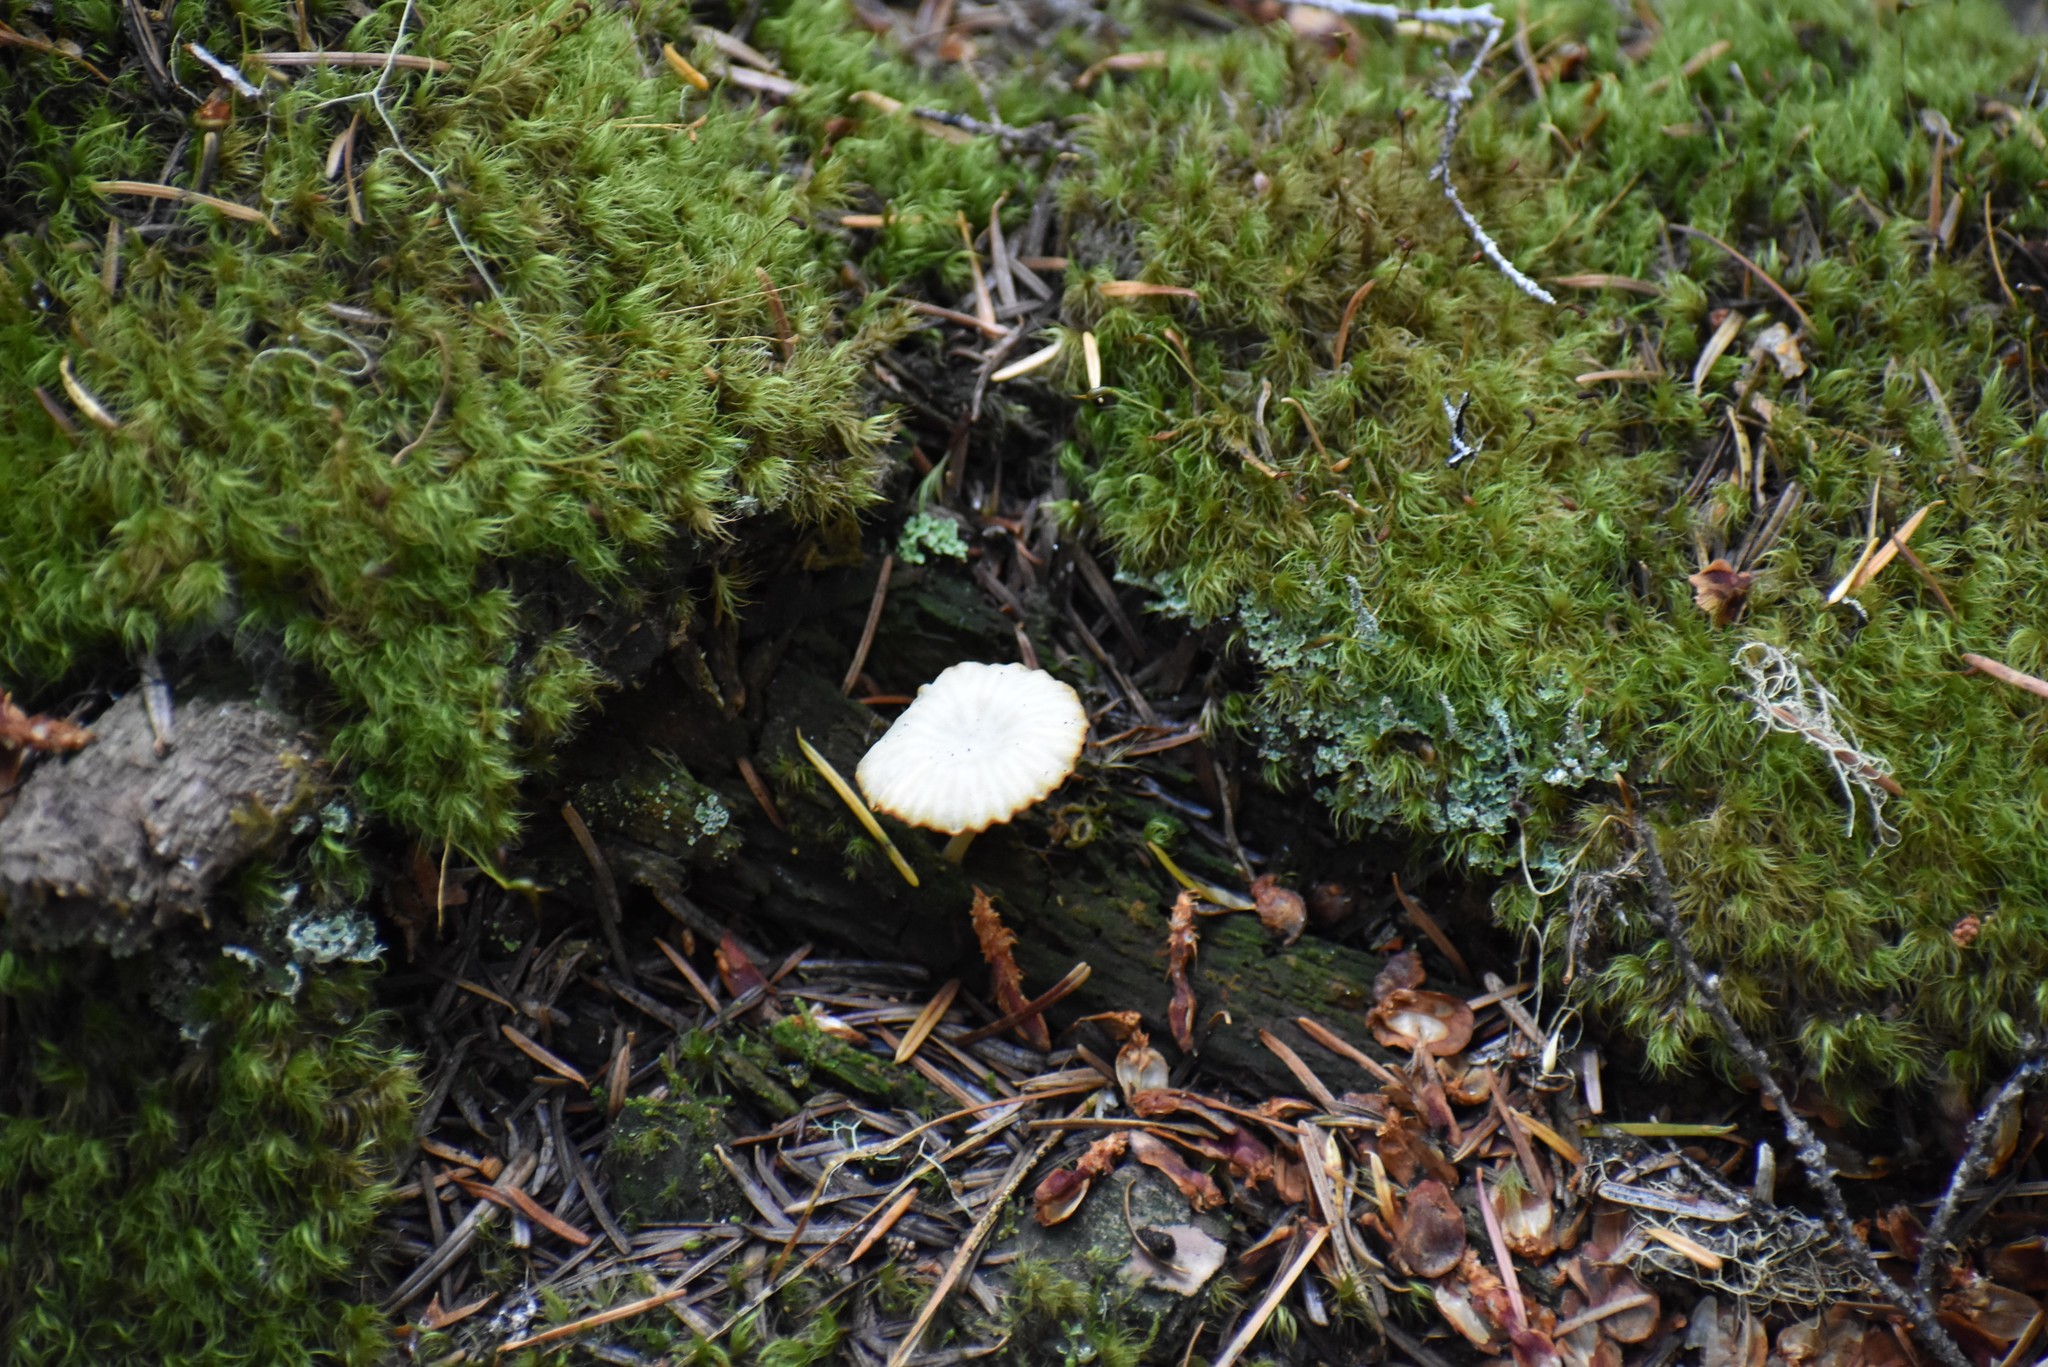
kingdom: Fungi
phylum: Basidiomycota
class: Agaricomycetes
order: Agaricales
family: Hygrophoraceae
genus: Lichenomphalia
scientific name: Lichenomphalia
